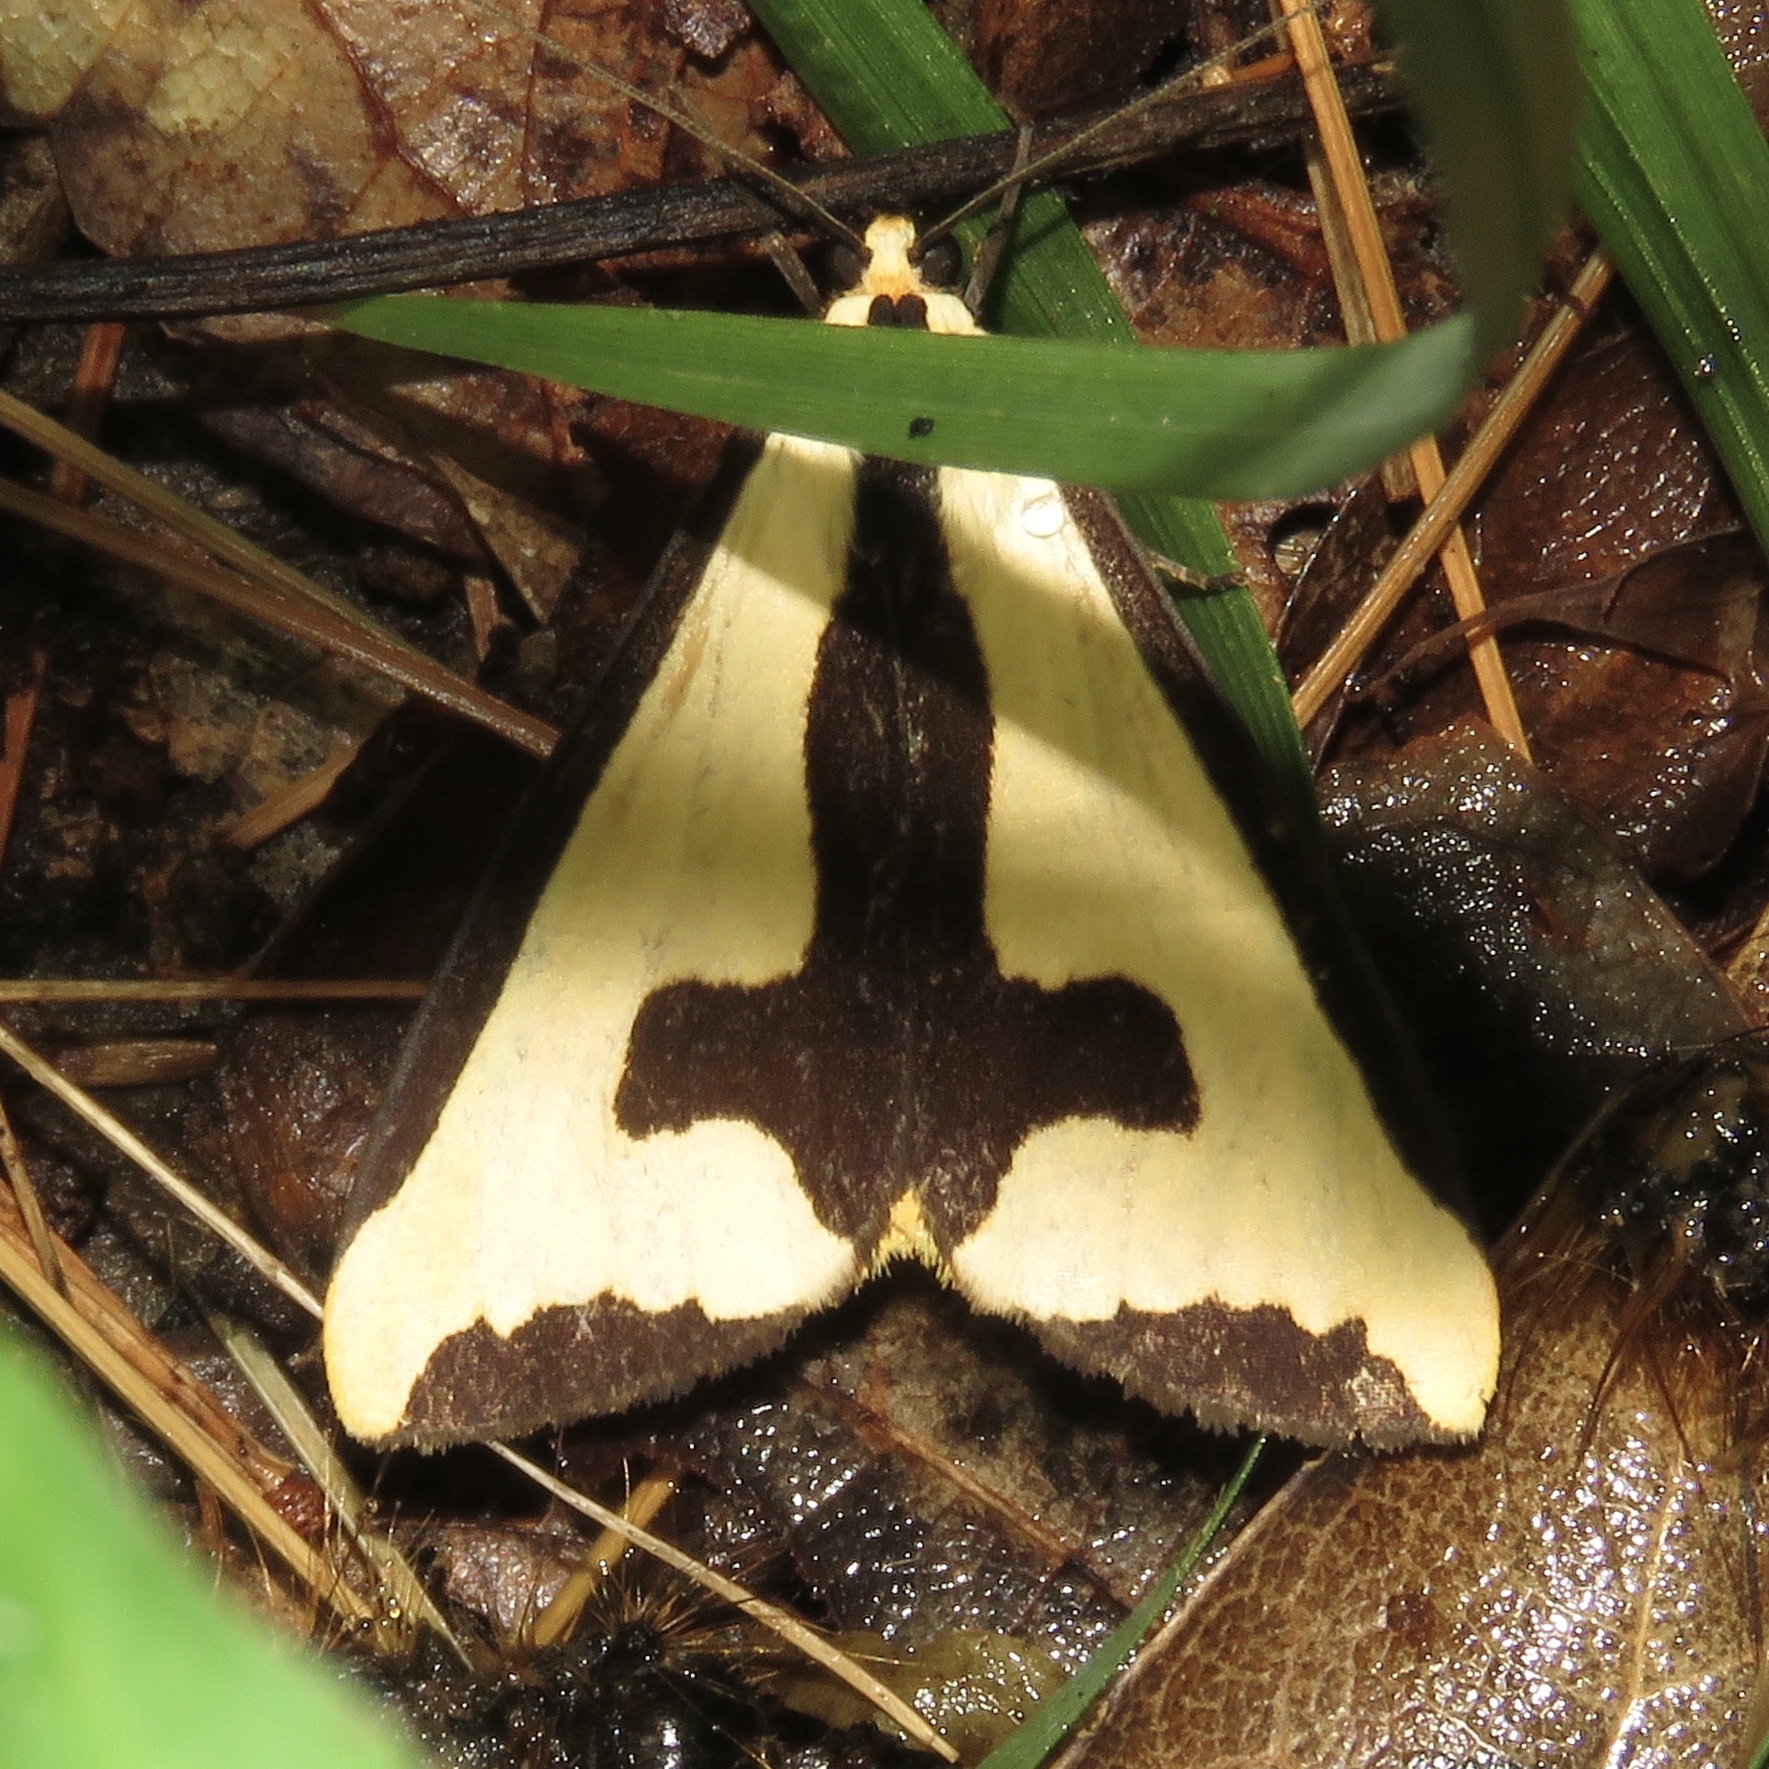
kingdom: Animalia
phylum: Arthropoda
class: Insecta
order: Lepidoptera
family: Erebidae
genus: Haploa
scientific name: Haploa clymene
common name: Clymene moth
